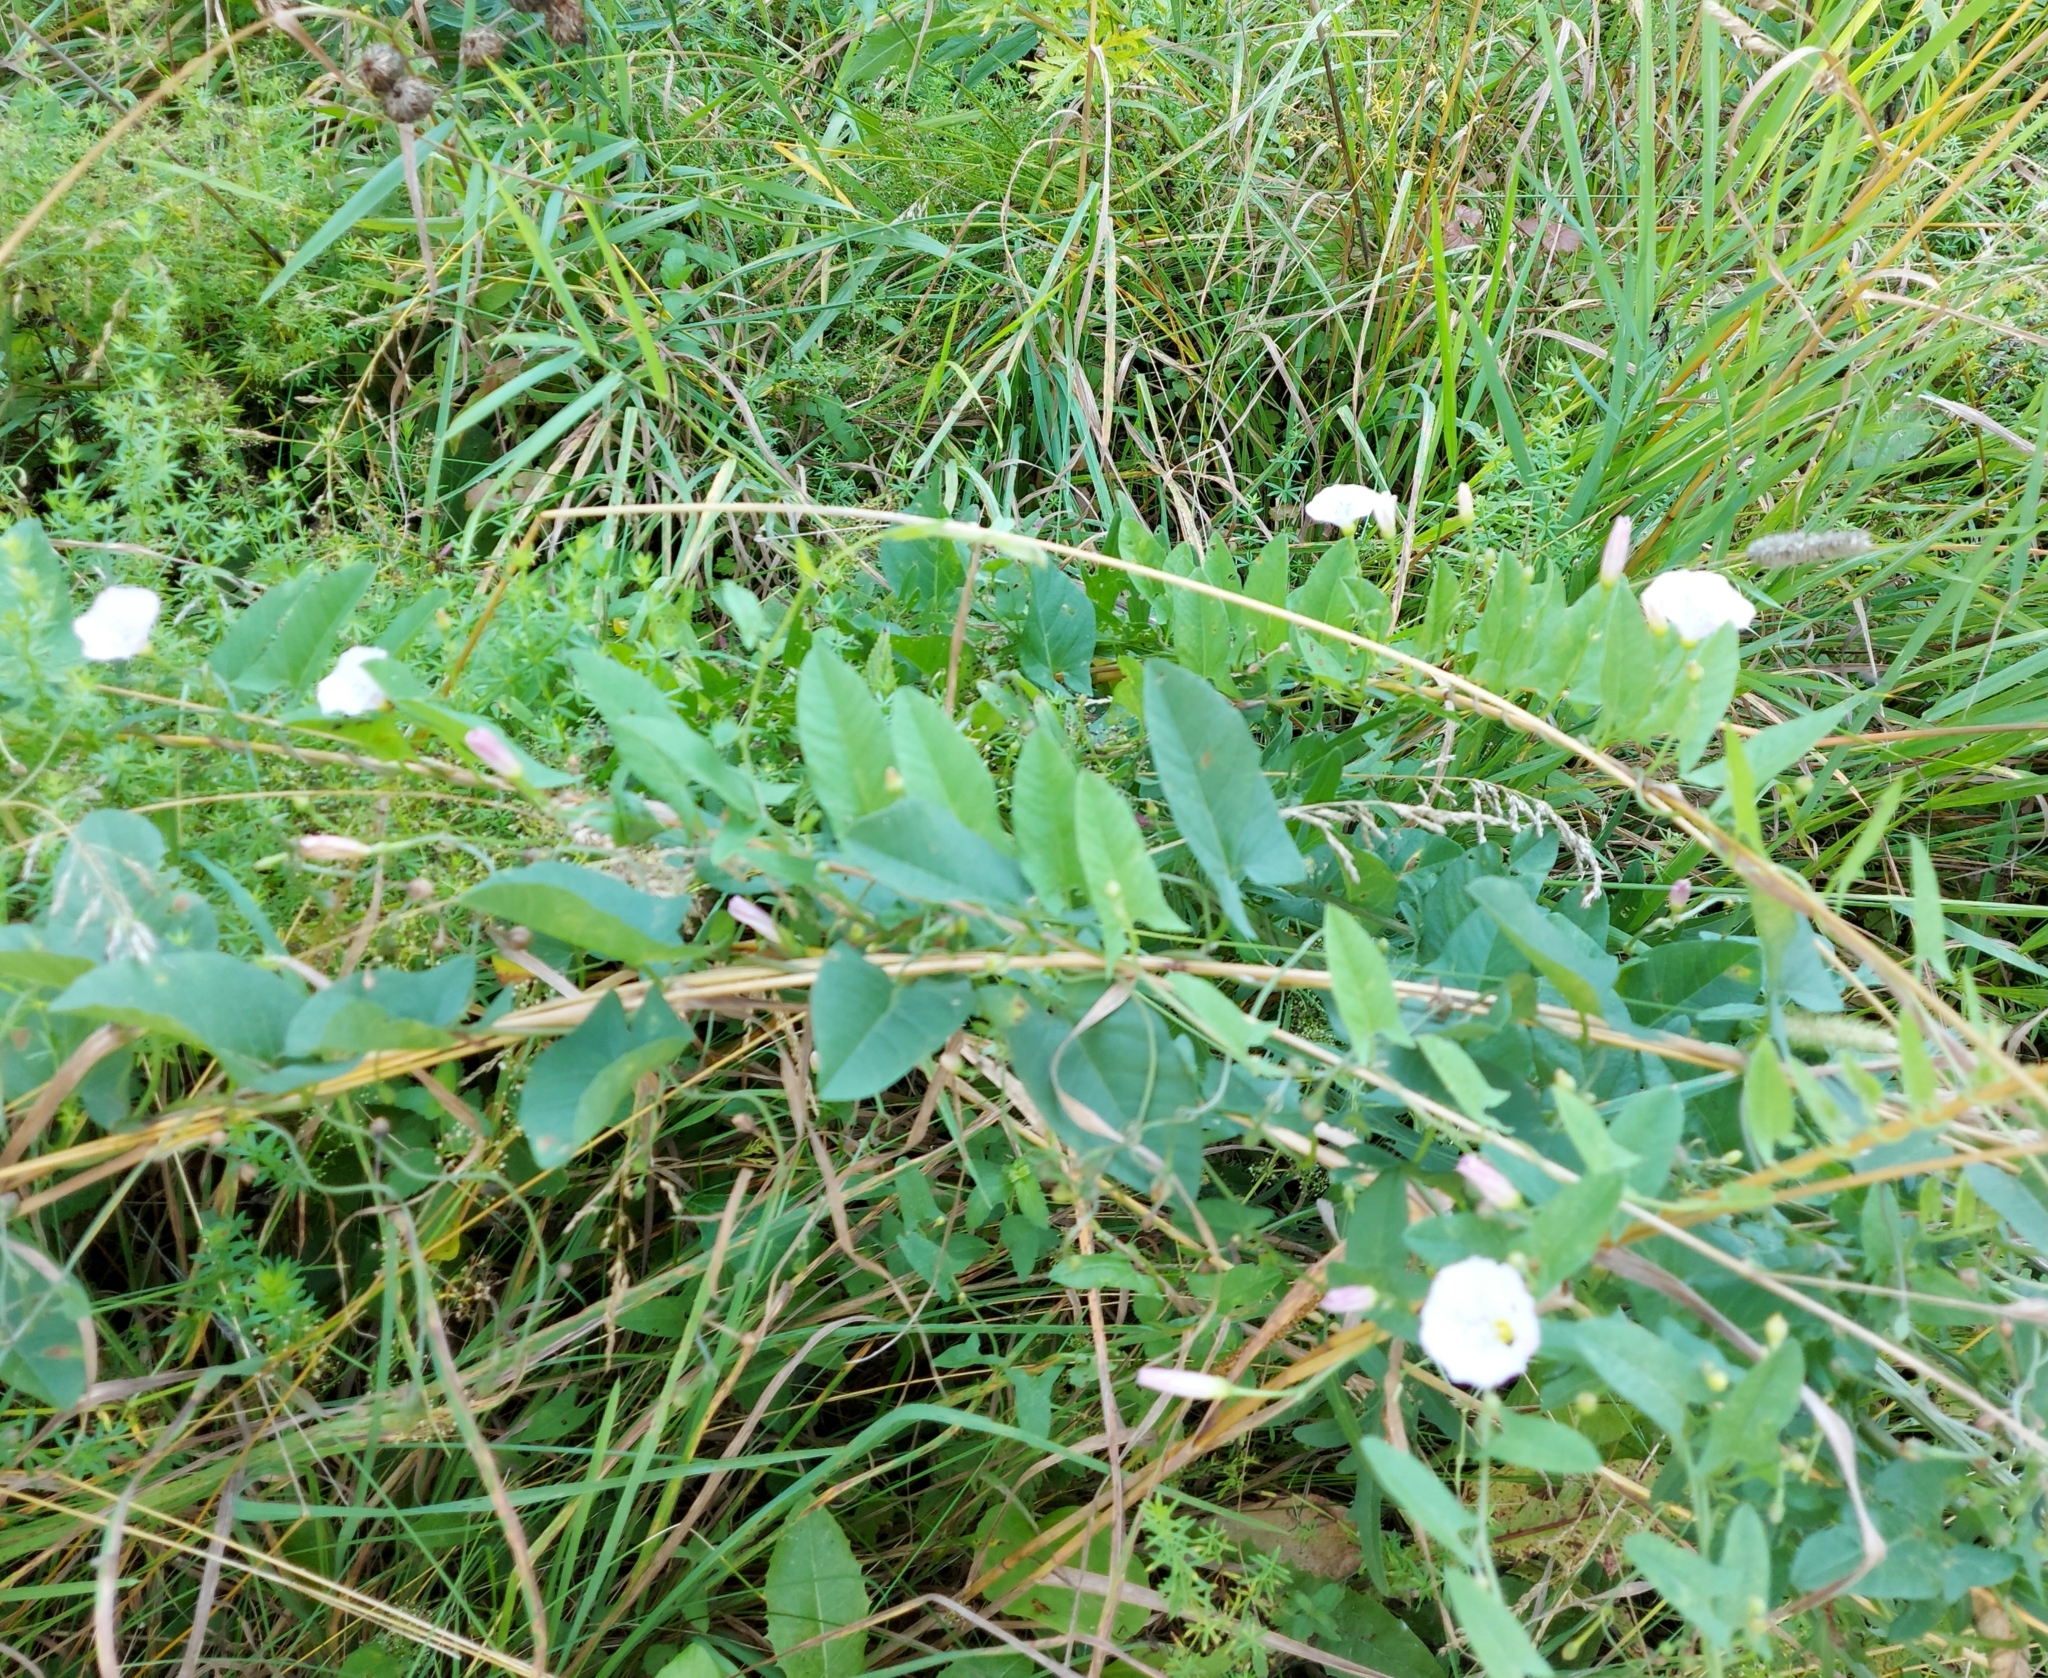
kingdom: Plantae
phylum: Tracheophyta
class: Magnoliopsida
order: Solanales
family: Convolvulaceae
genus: Convolvulus
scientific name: Convolvulus arvensis
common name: Field bindweed
